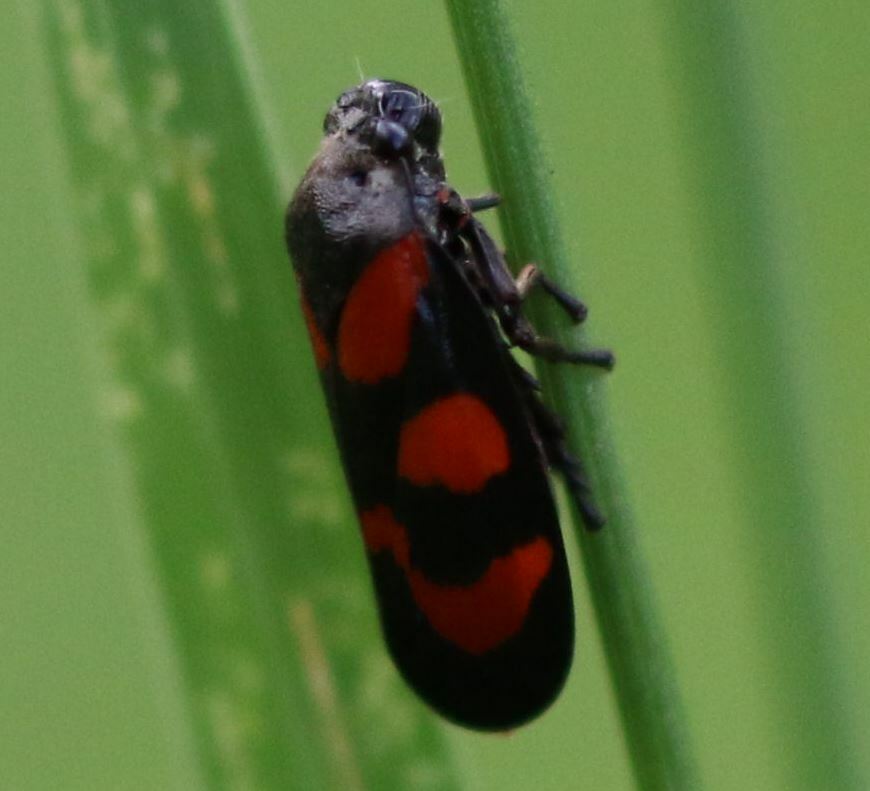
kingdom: Animalia
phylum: Arthropoda
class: Insecta
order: Hemiptera
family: Cercopidae
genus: Cercopis
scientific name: Cercopis vulnerata
